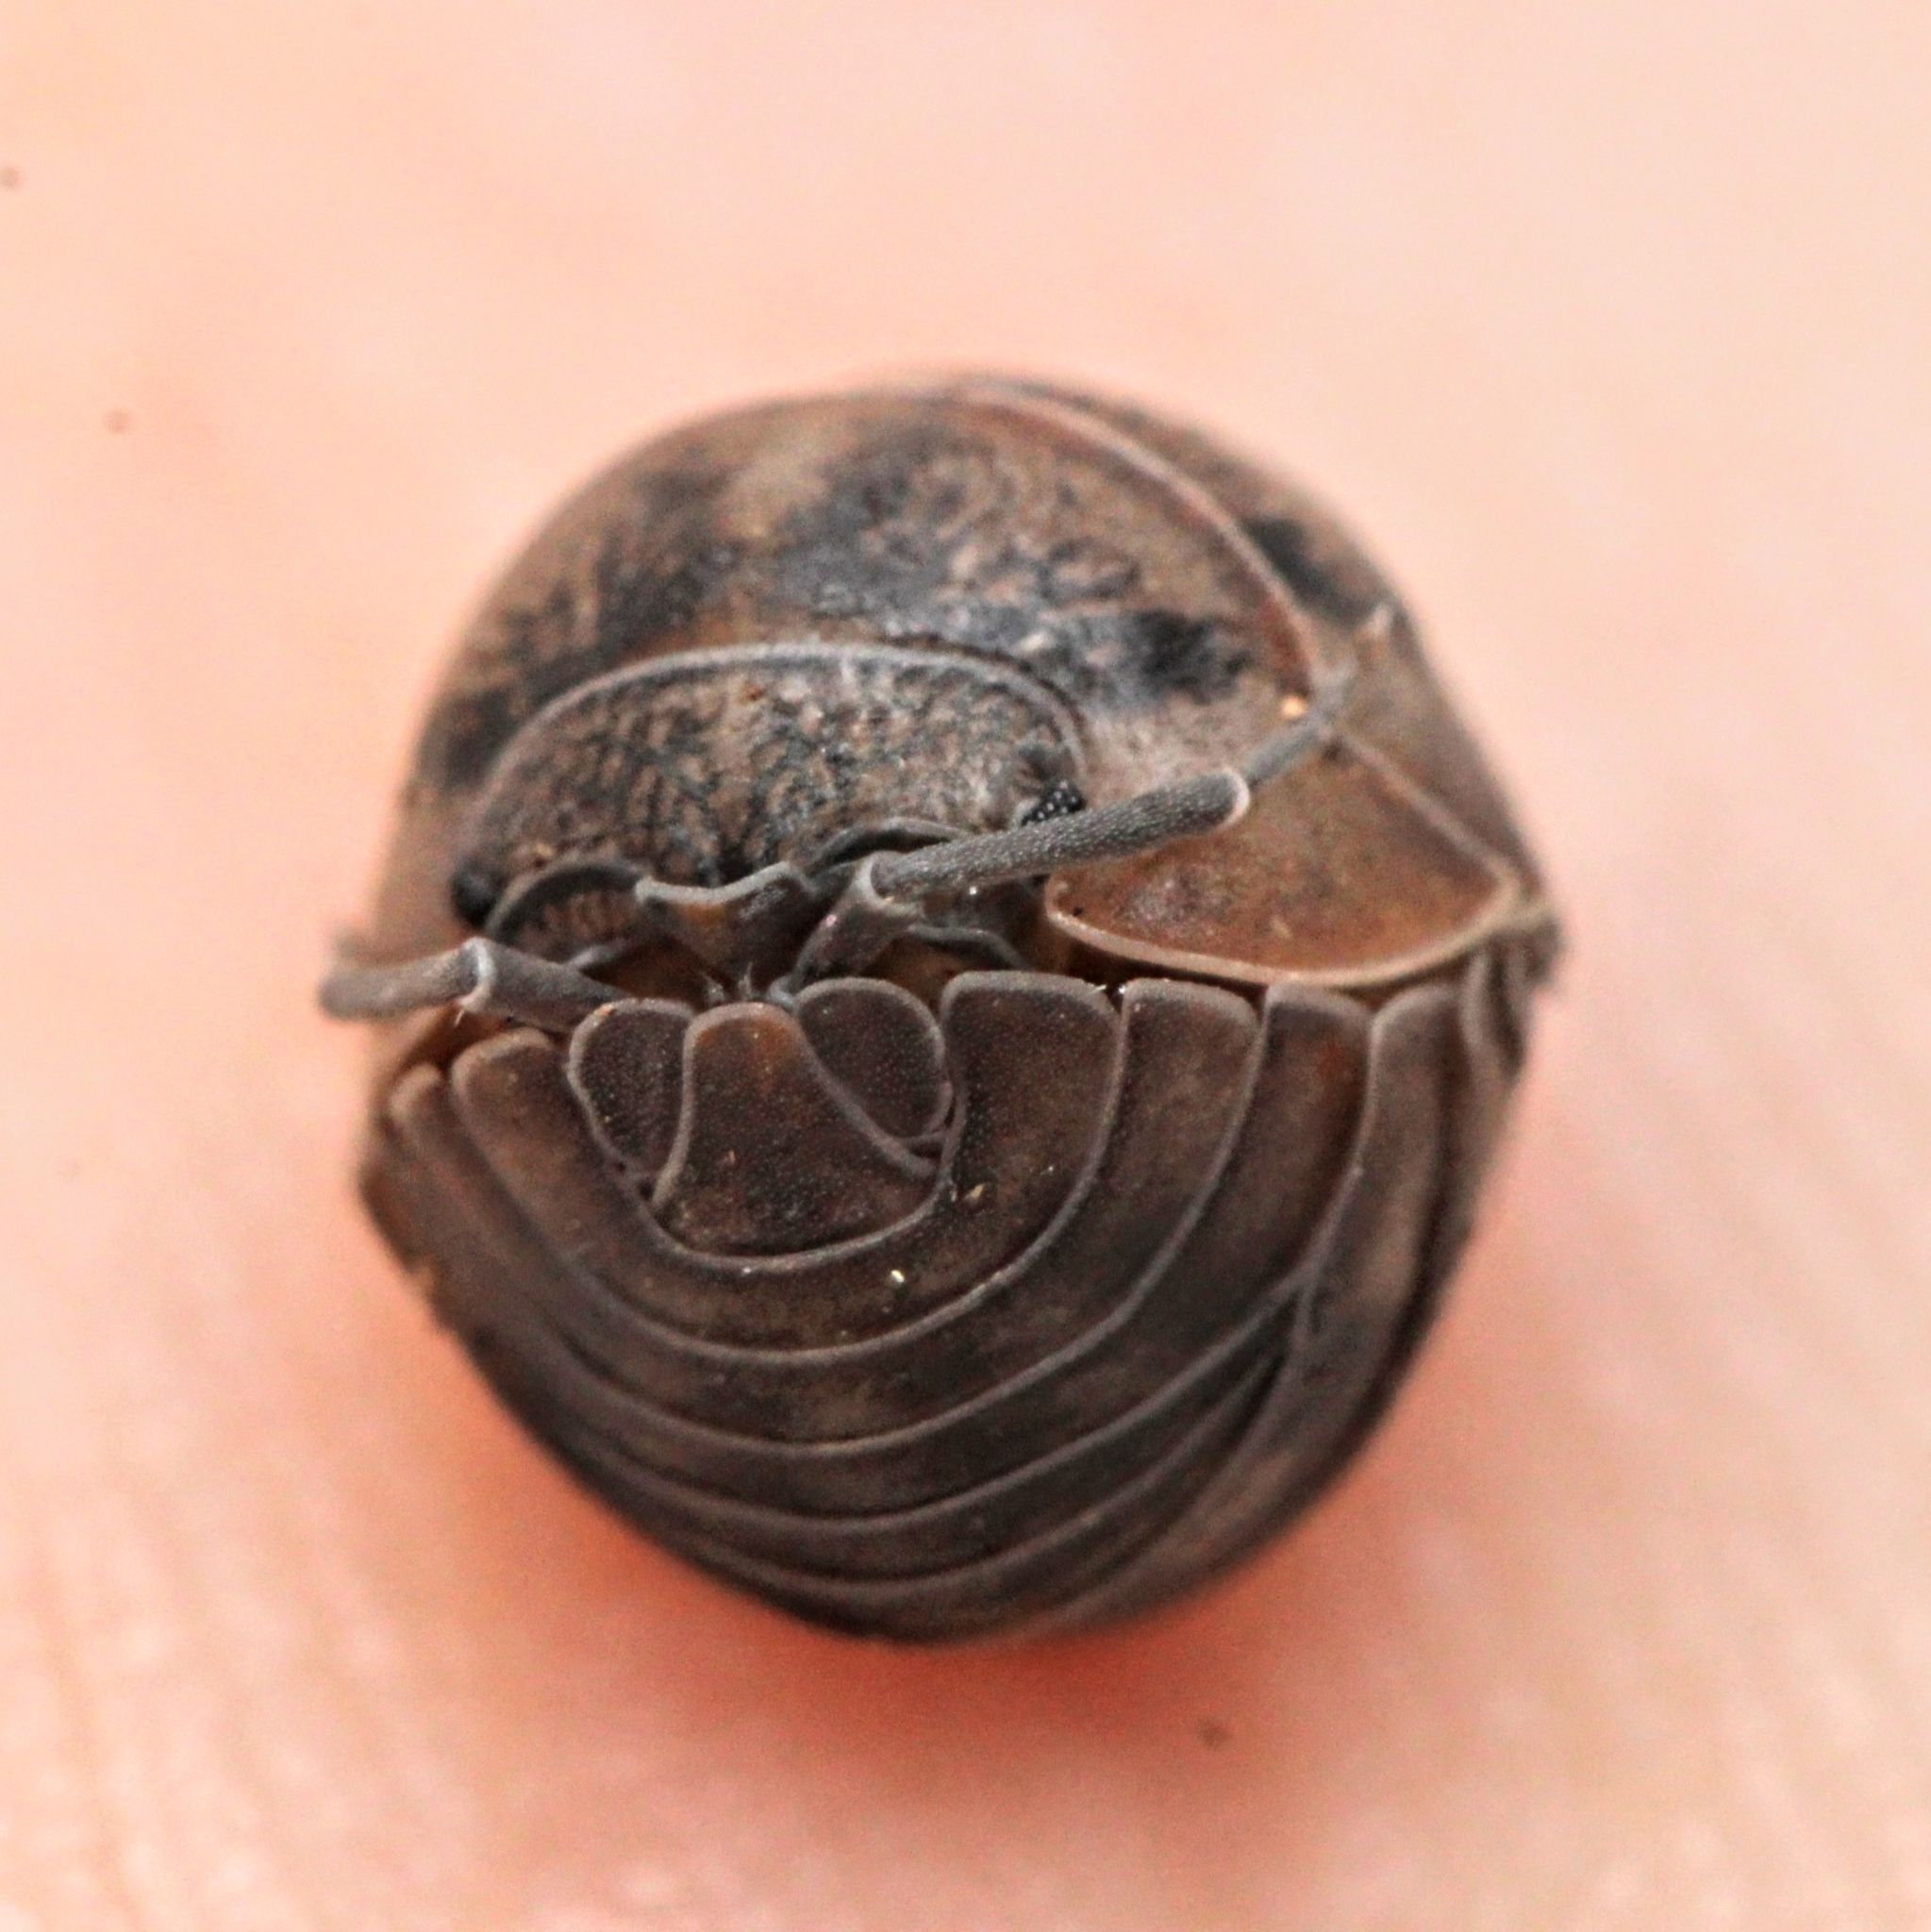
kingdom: Animalia
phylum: Arthropoda
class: Malacostraca
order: Isopoda
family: Armadillidiidae
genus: Armadillidium
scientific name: Armadillidium nasatum
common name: Isopod
